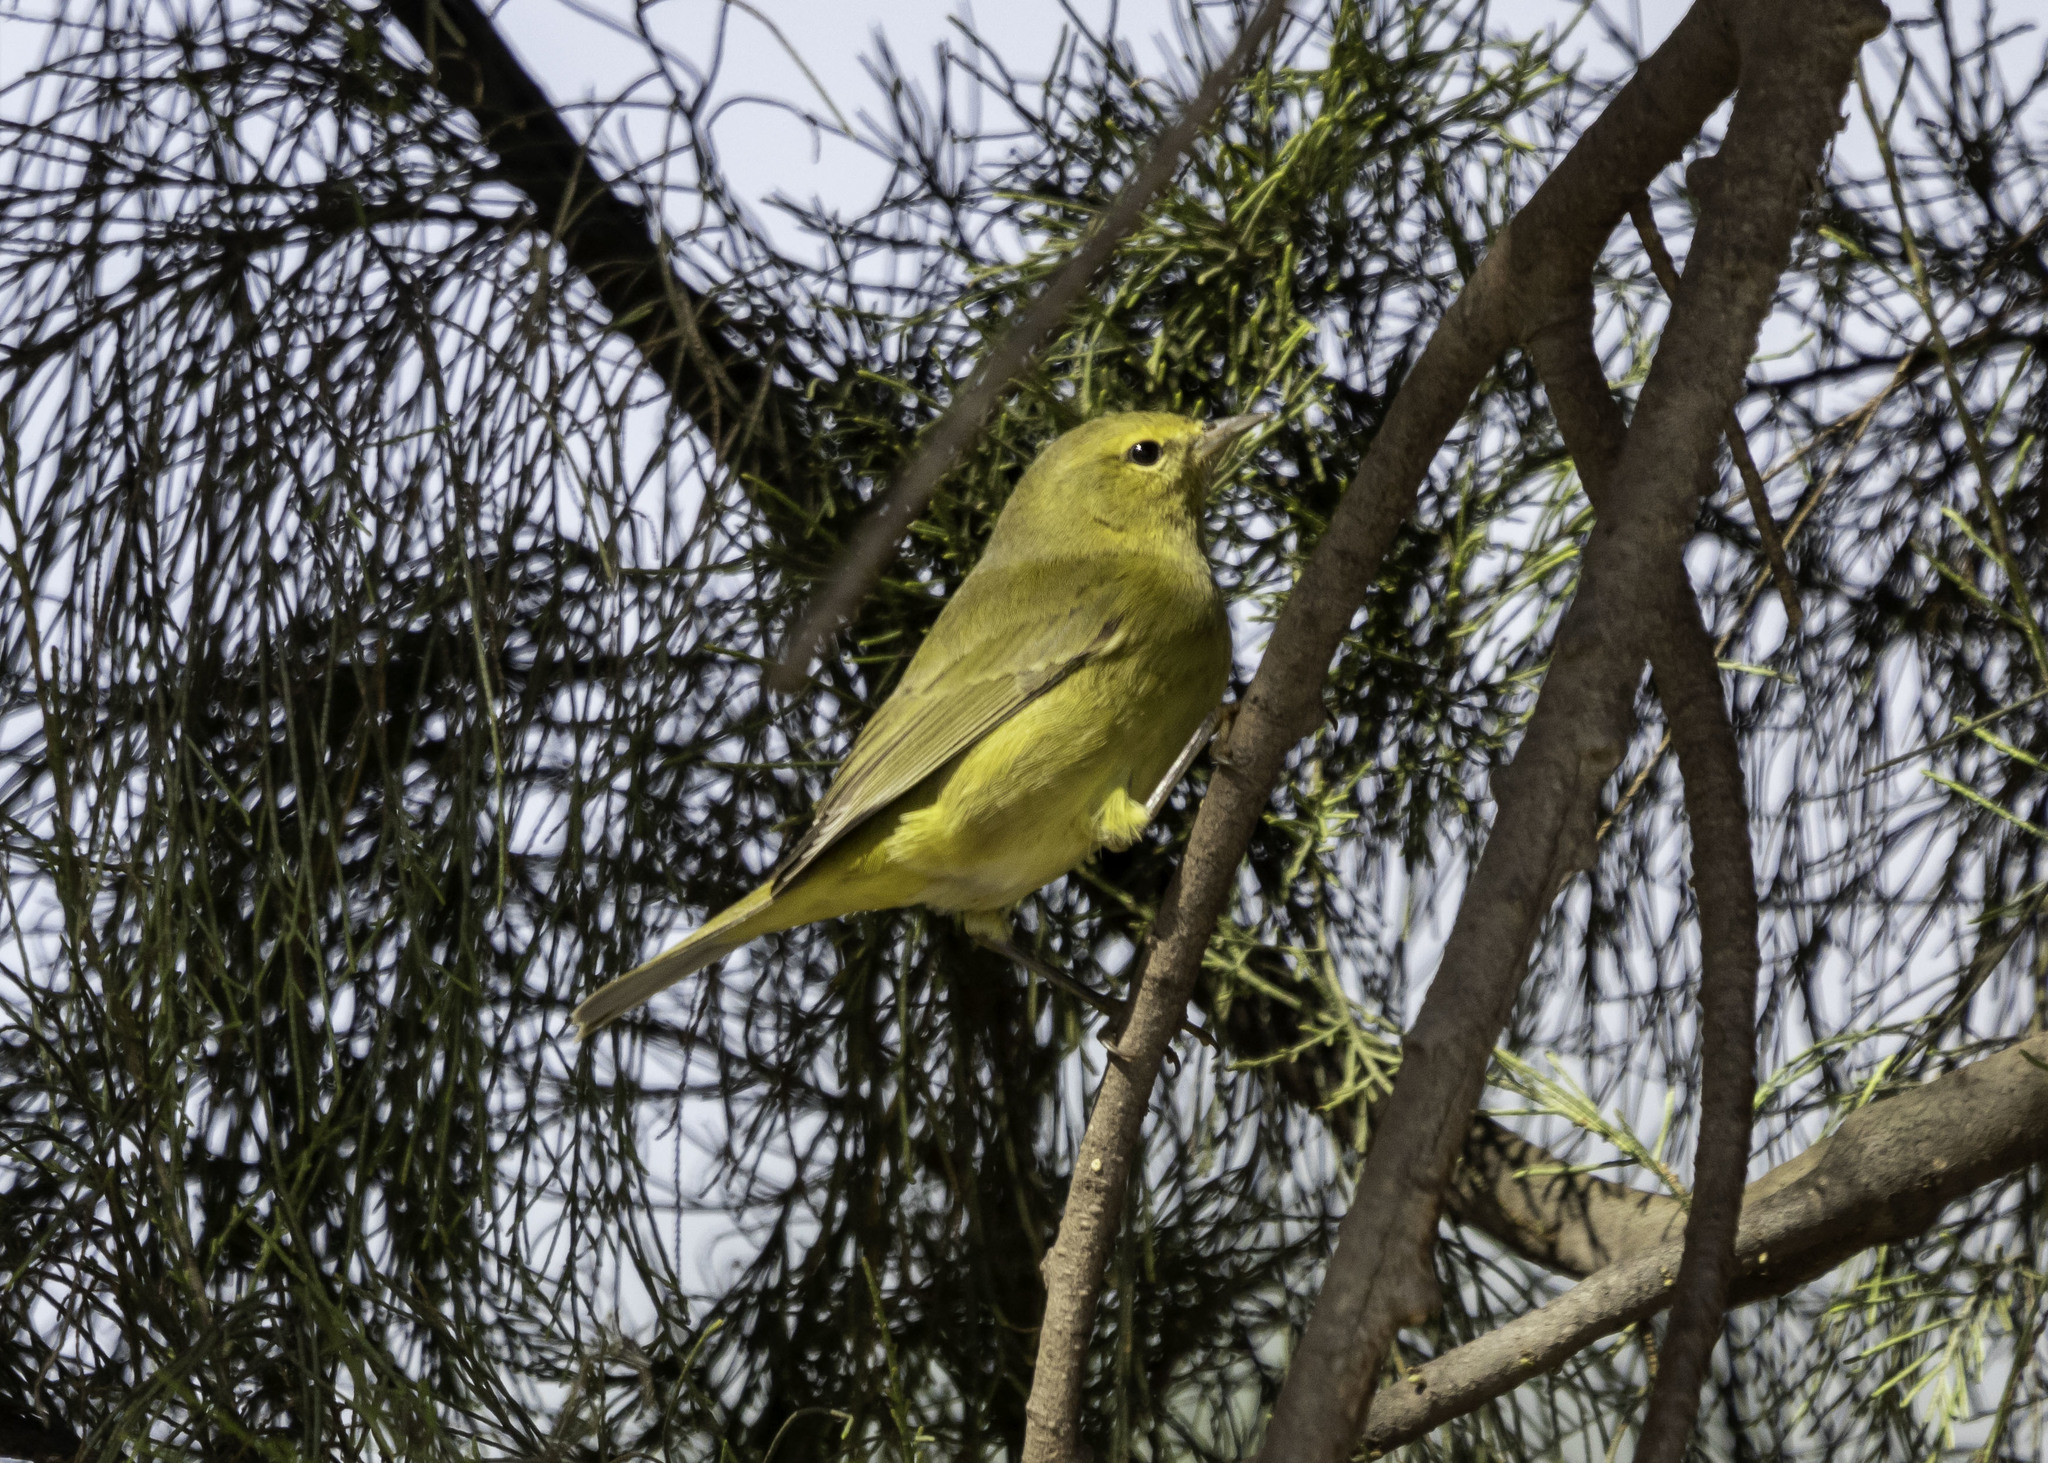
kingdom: Animalia
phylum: Chordata
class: Aves
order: Passeriformes
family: Parulidae
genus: Leiothlypis
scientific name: Leiothlypis celata
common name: Orange-crowned warbler
